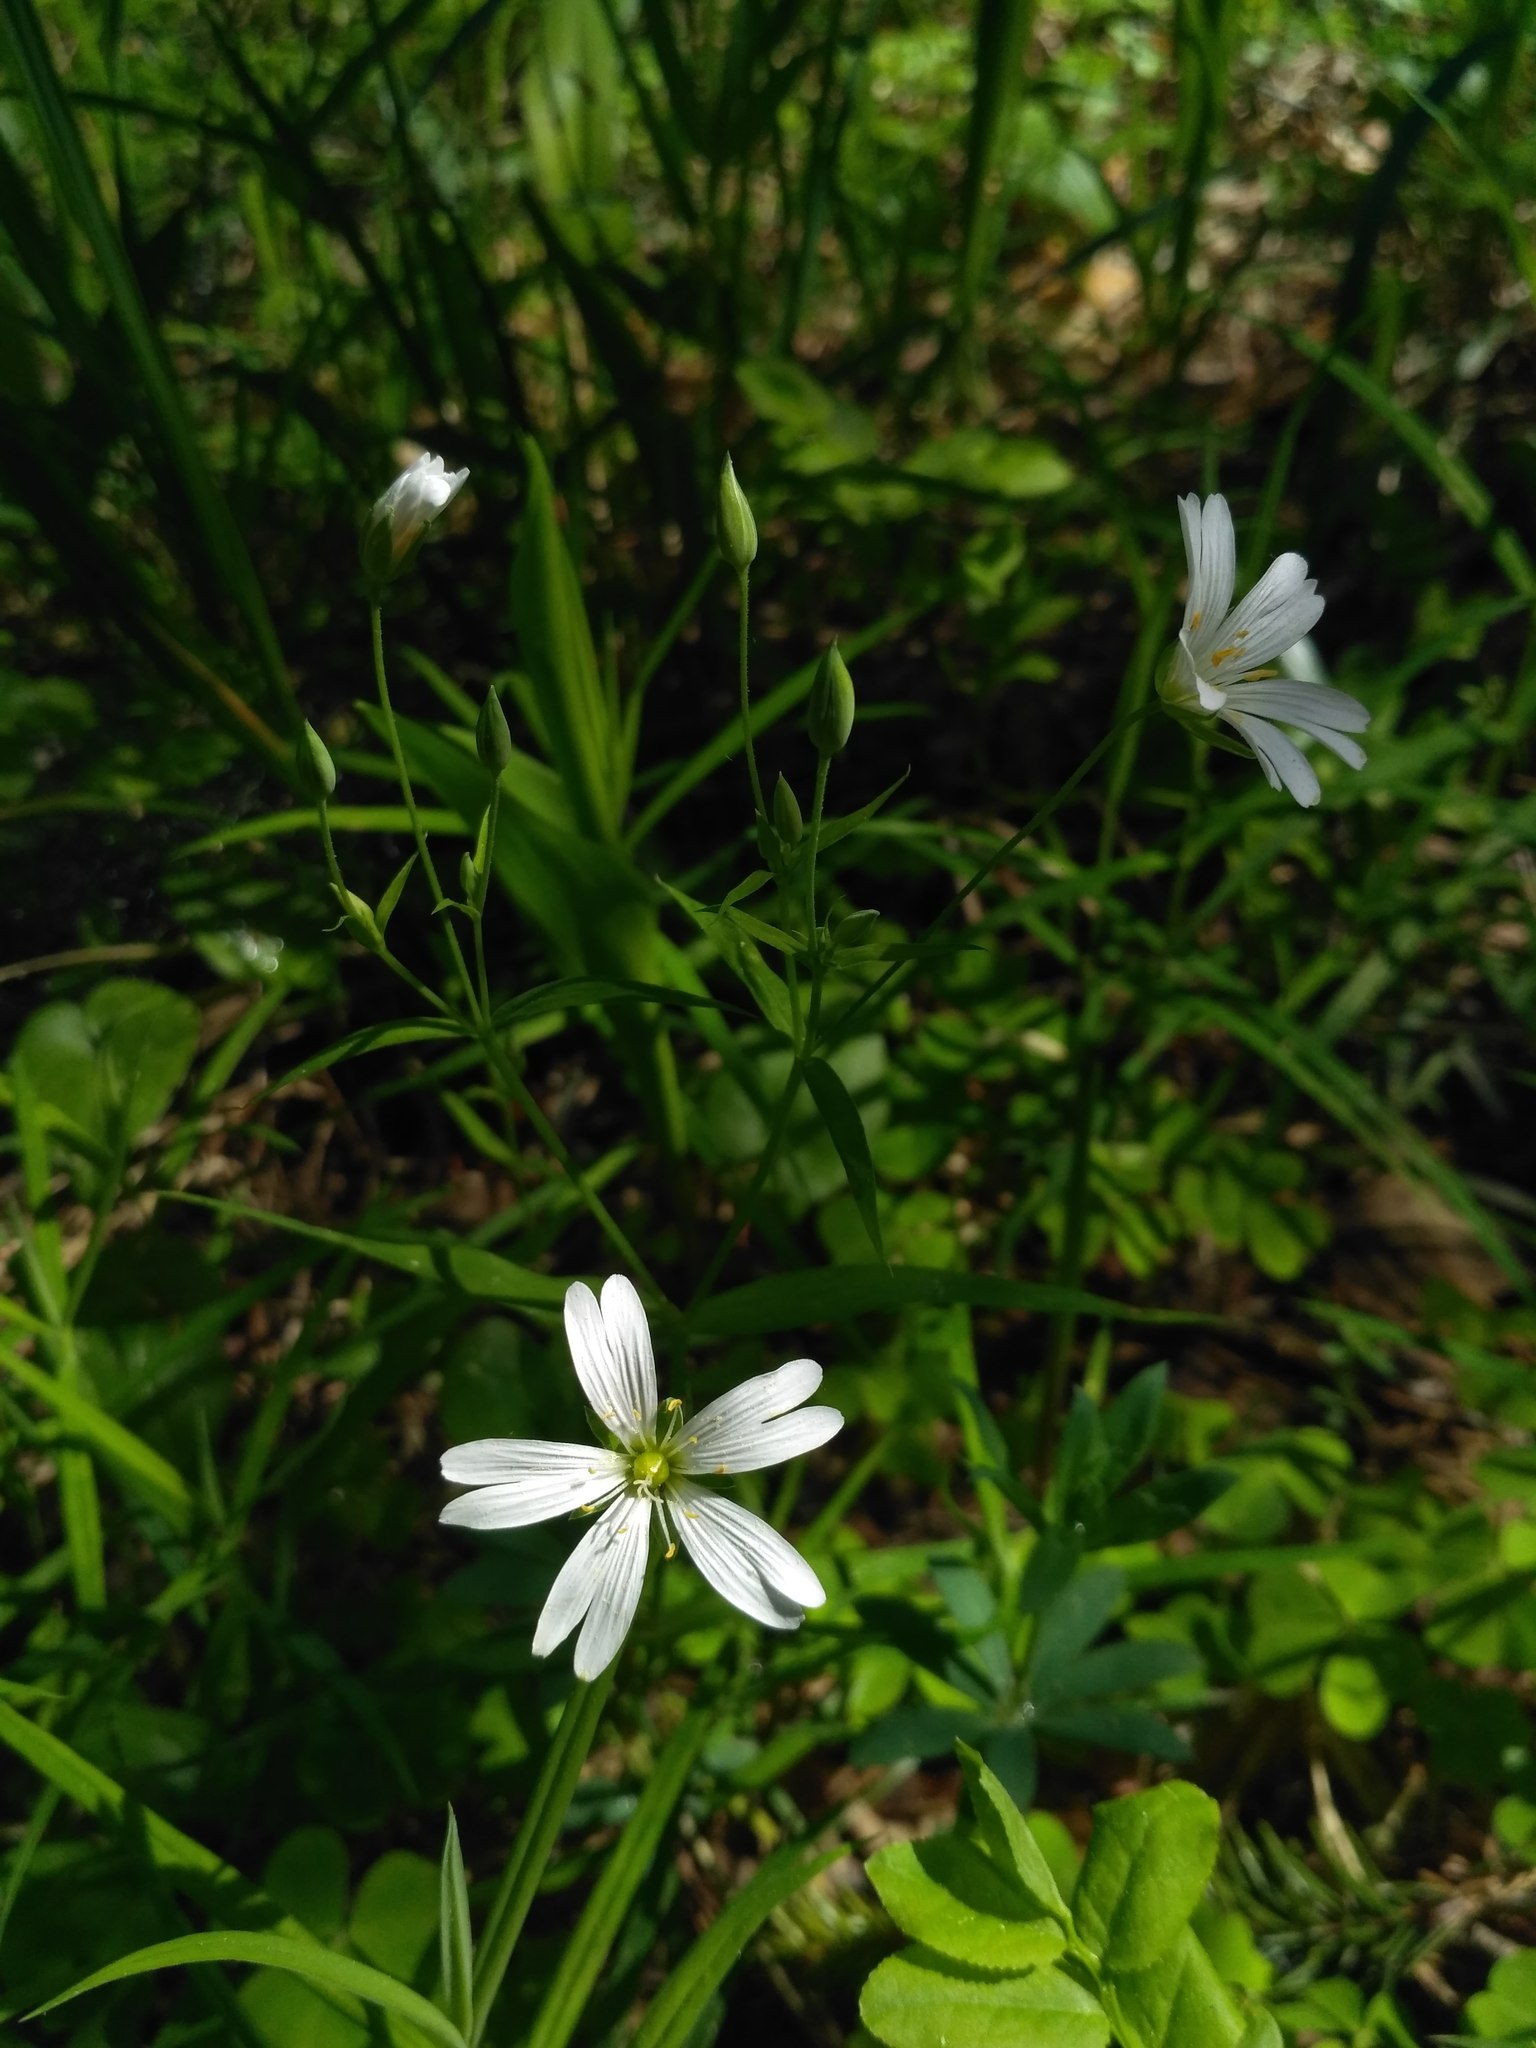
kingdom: Plantae
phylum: Tracheophyta
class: Magnoliopsida
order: Caryophyllales
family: Caryophyllaceae
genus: Rabelera
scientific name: Rabelera holostea
